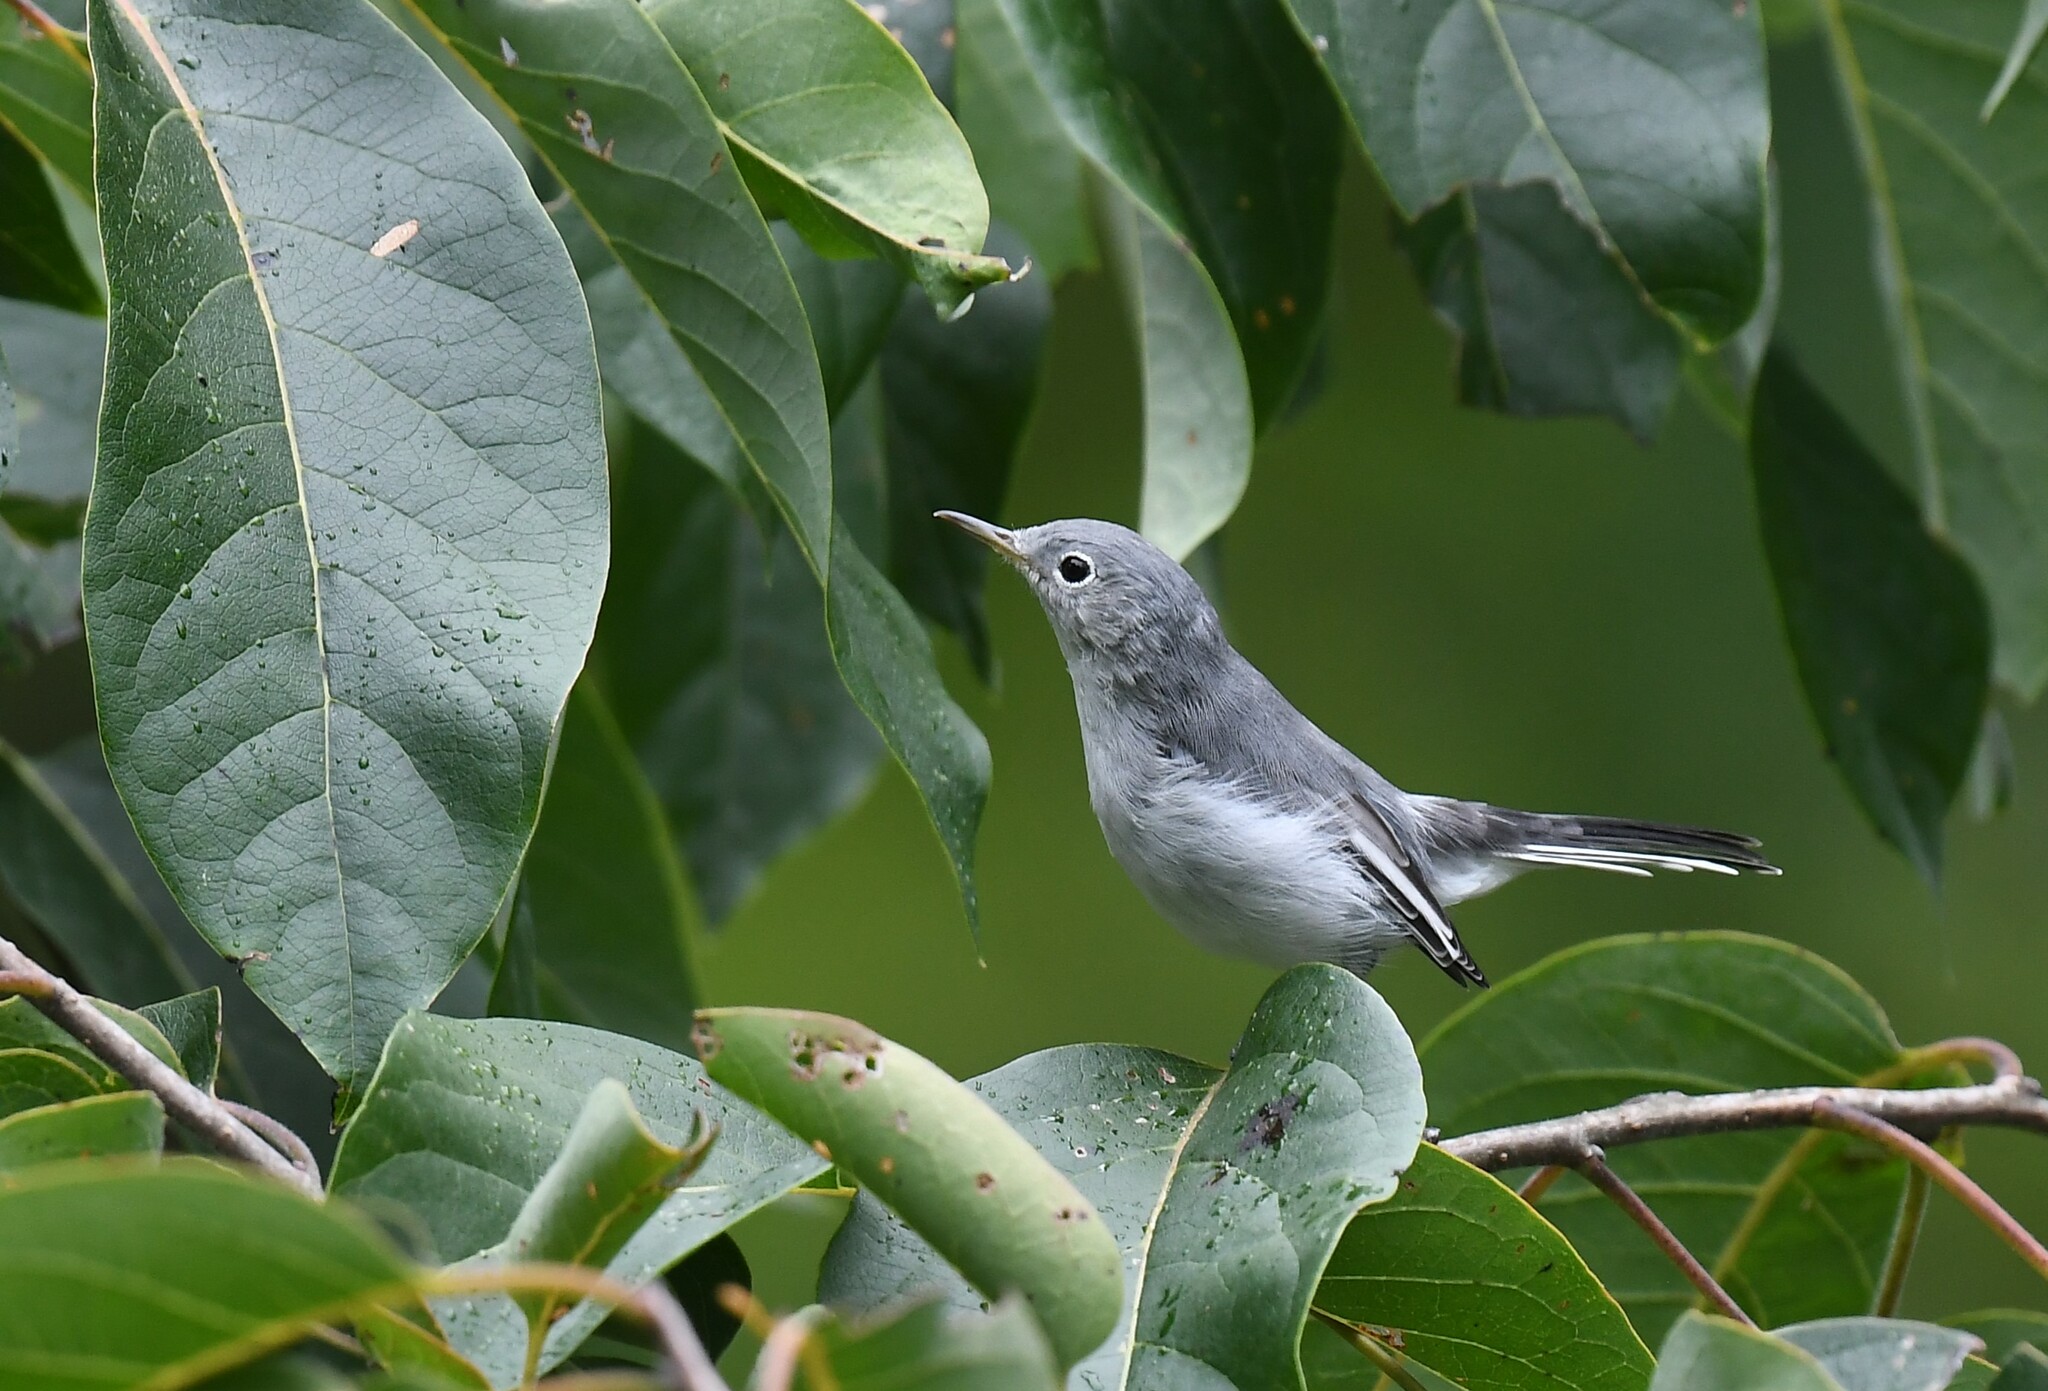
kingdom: Animalia
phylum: Chordata
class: Aves
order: Passeriformes
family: Polioptilidae
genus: Polioptila
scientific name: Polioptila caerulea
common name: Blue-gray gnatcatcher
